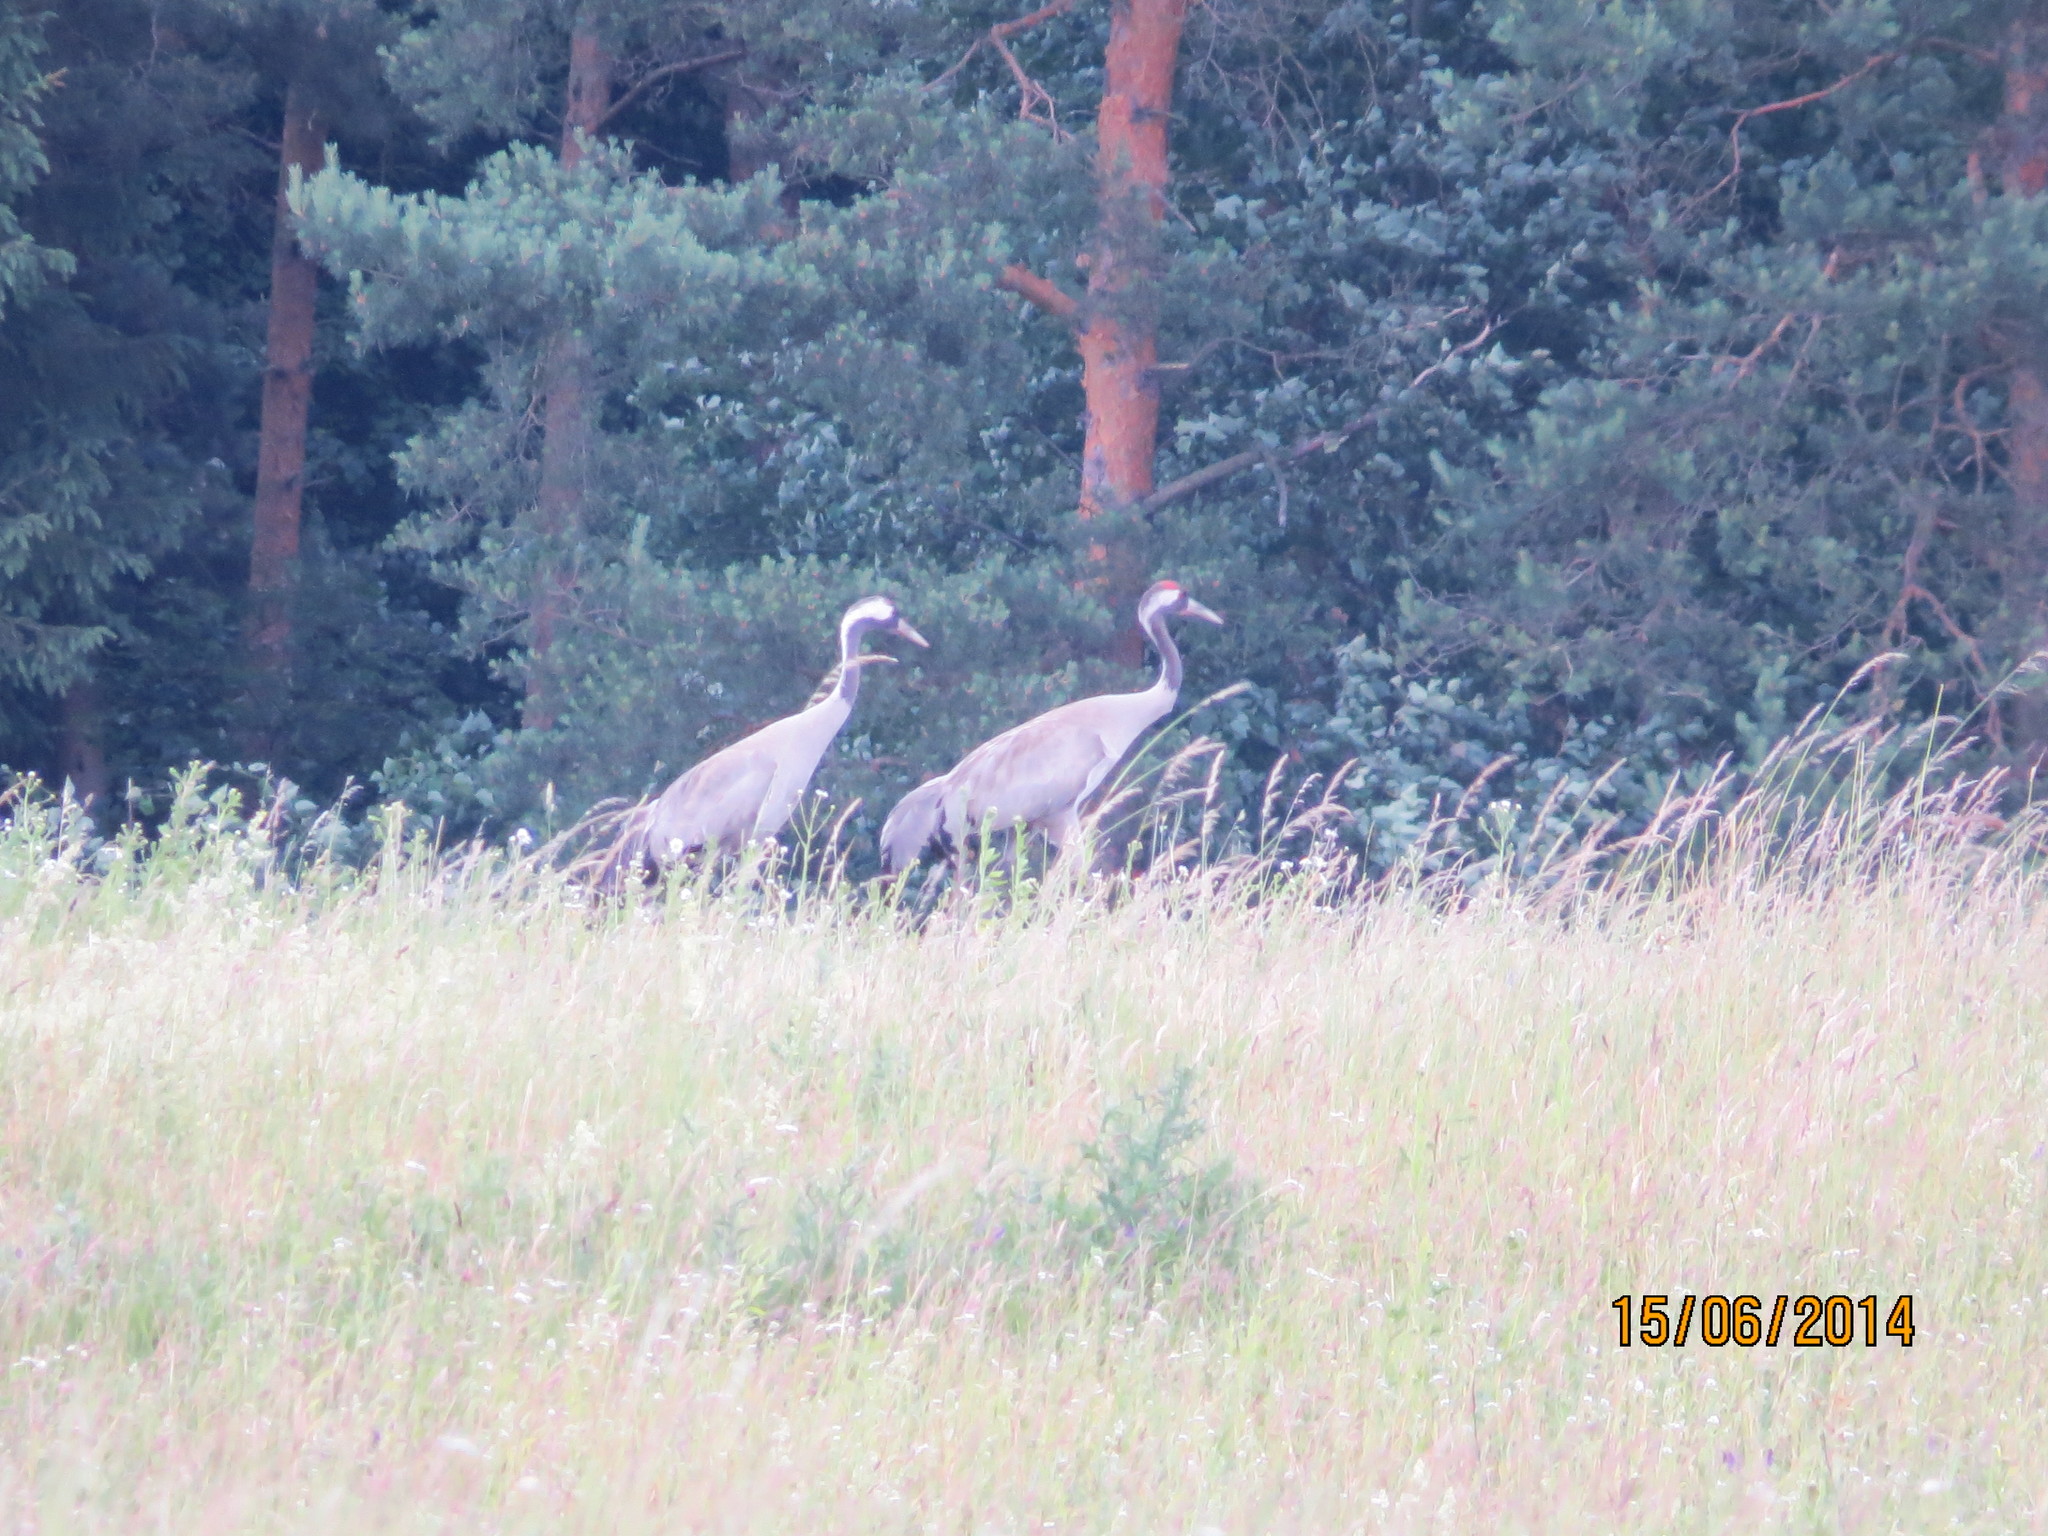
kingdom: Animalia
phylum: Chordata
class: Aves
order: Gruiformes
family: Gruidae
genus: Grus
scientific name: Grus grus
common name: Common crane
